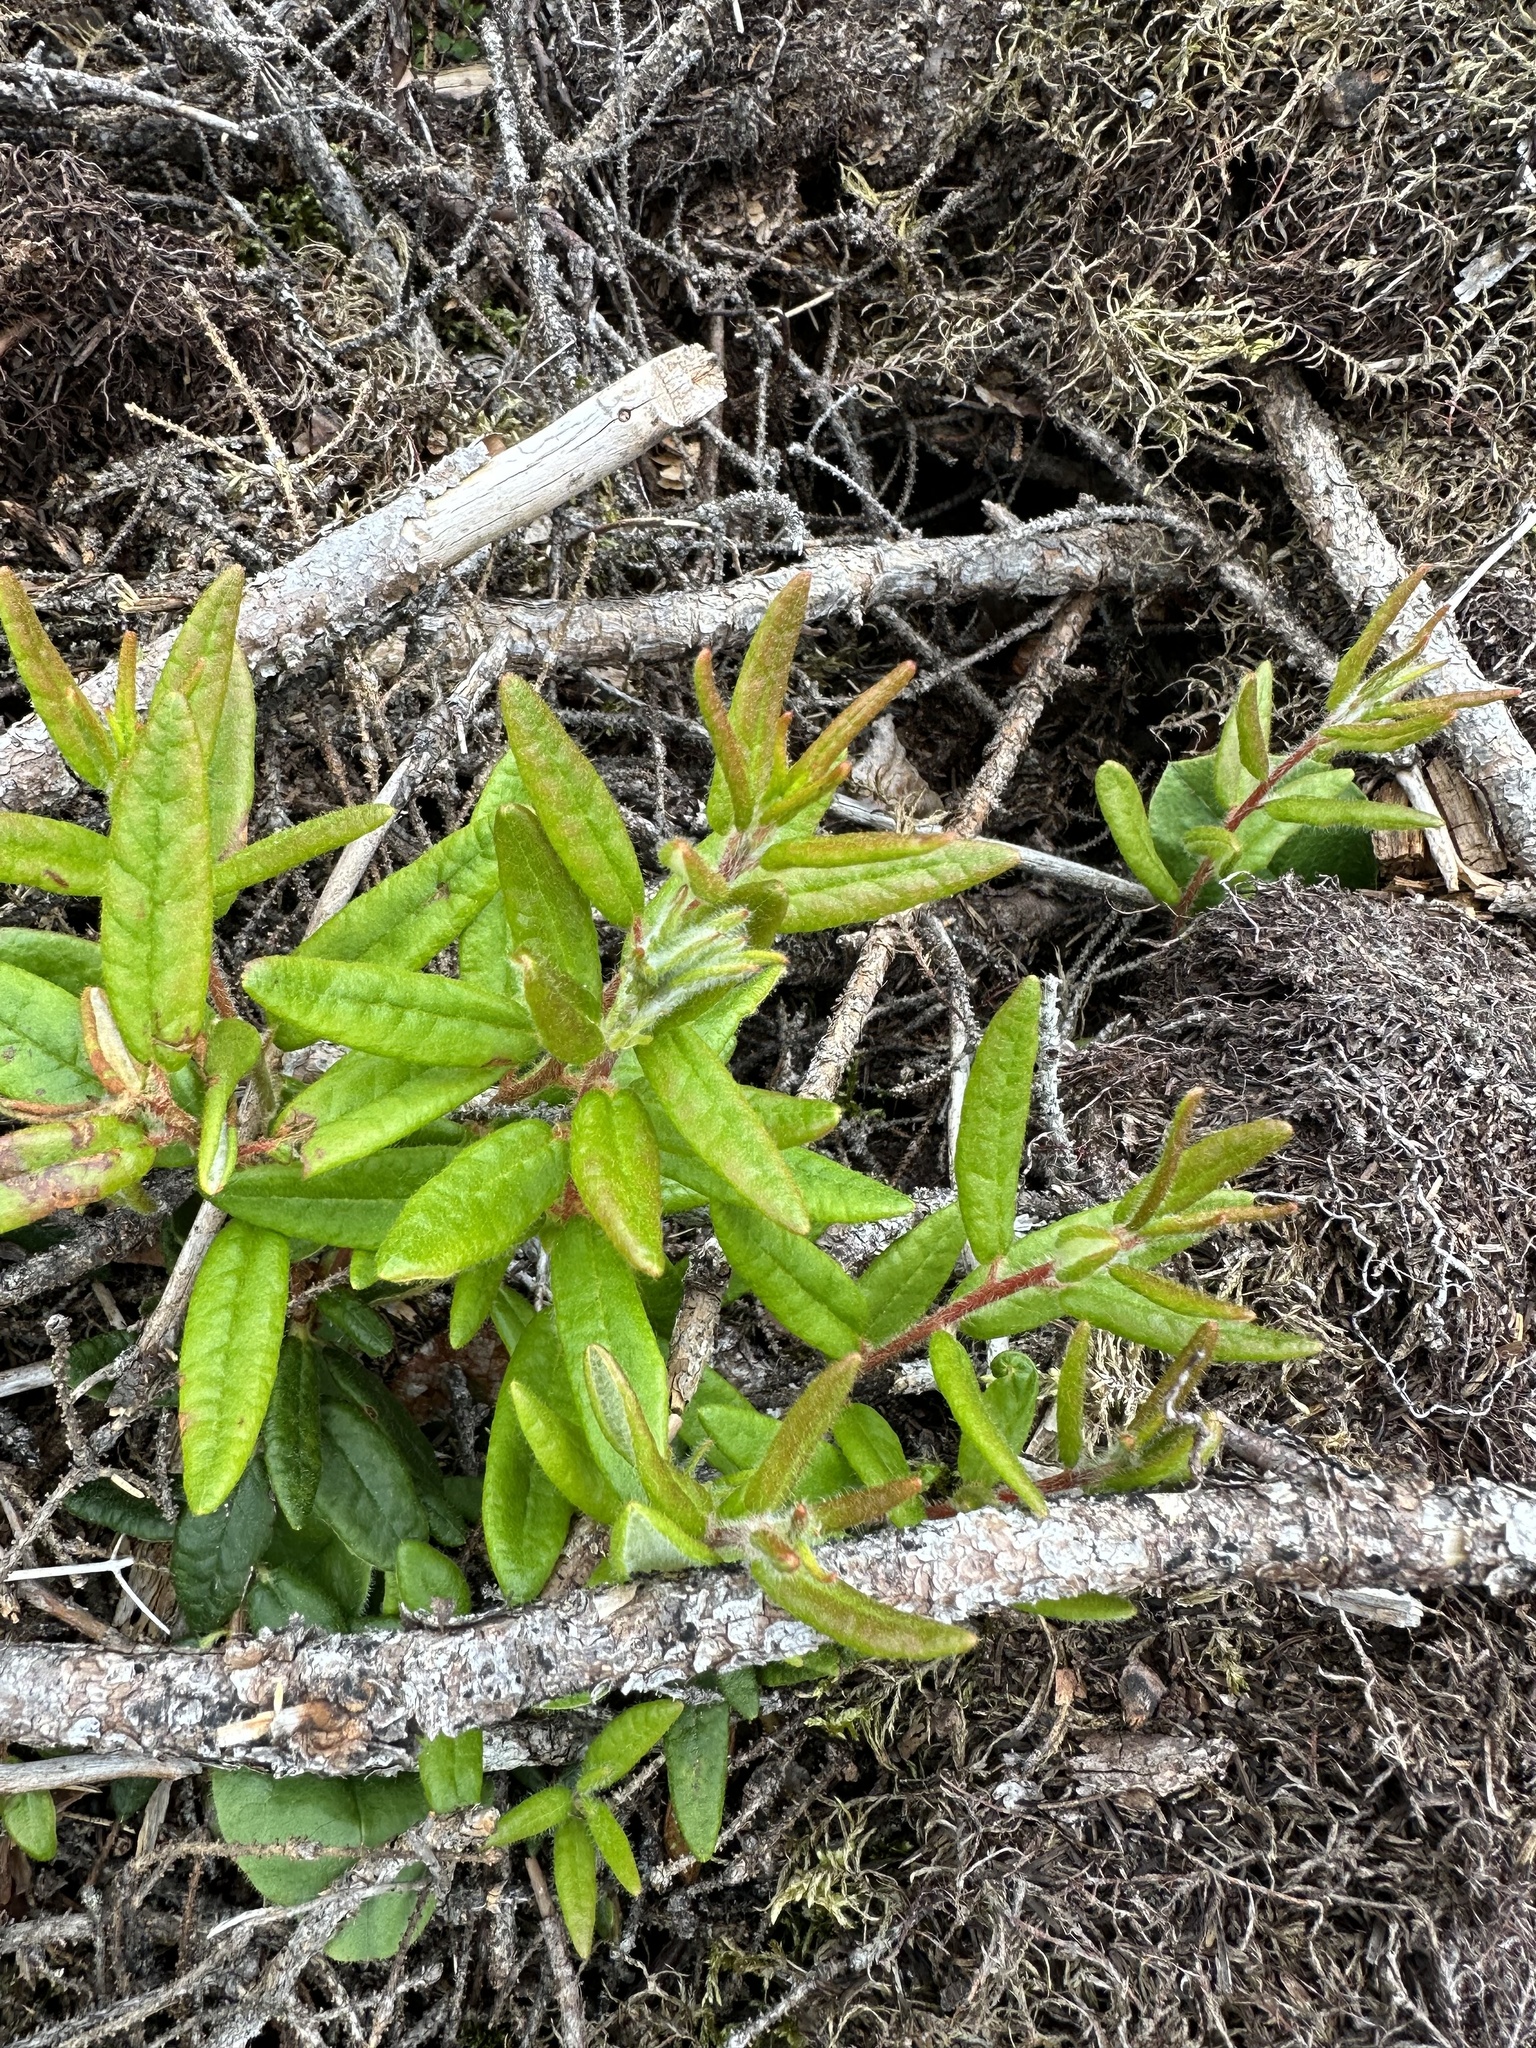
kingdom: Plantae
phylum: Tracheophyta
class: Magnoliopsida
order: Ericales
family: Ericaceae
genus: Rhododendron
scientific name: Rhododendron groenlandicum
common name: Bog labrador tea
